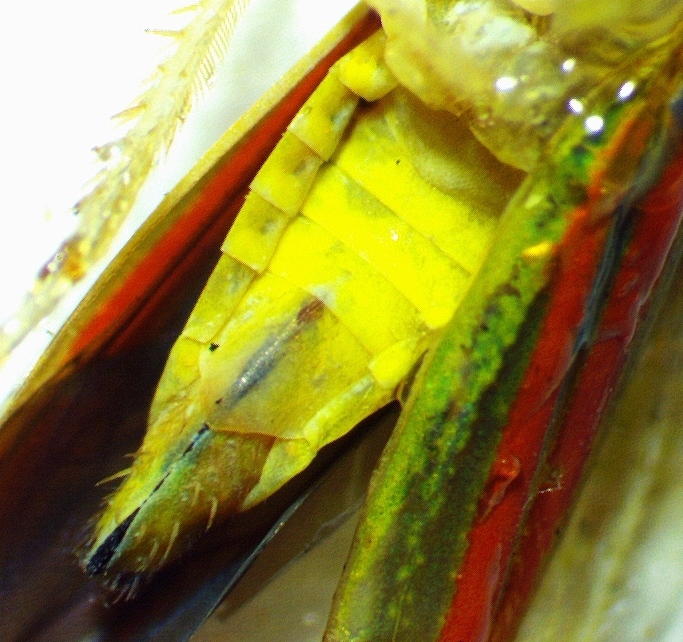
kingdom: Animalia
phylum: Arthropoda
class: Insecta
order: Hemiptera
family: Cicadellidae
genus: Graphocephala
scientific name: Graphocephala versuta
